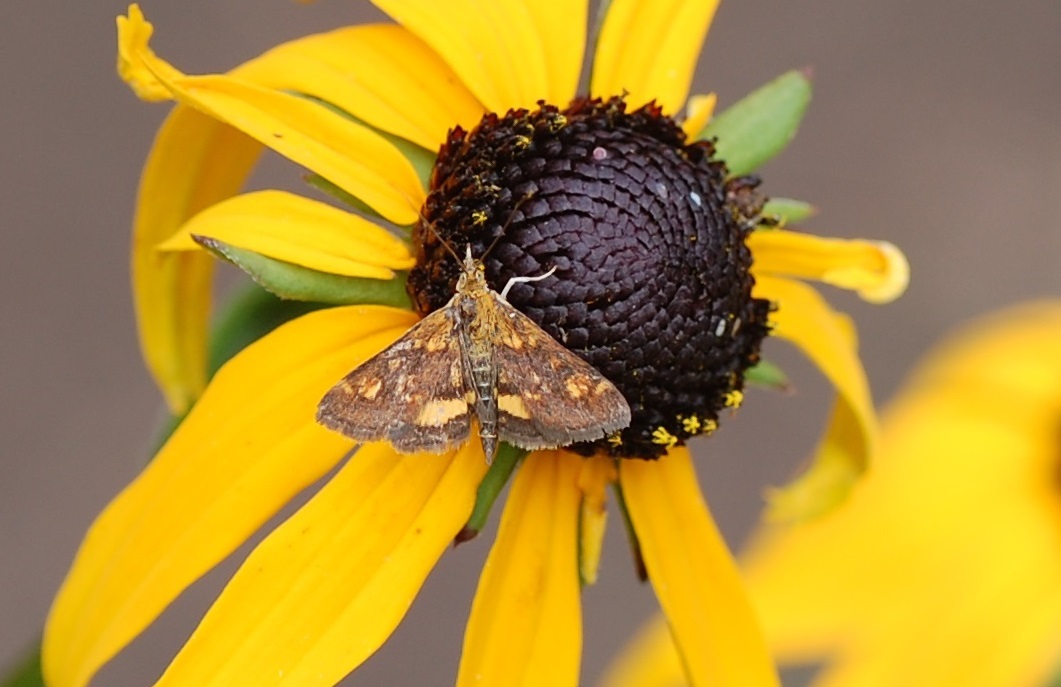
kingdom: Animalia
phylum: Arthropoda
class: Insecta
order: Lepidoptera
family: Crambidae
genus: Pyrausta
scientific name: Pyrausta orphisalis
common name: Orange mint moth
